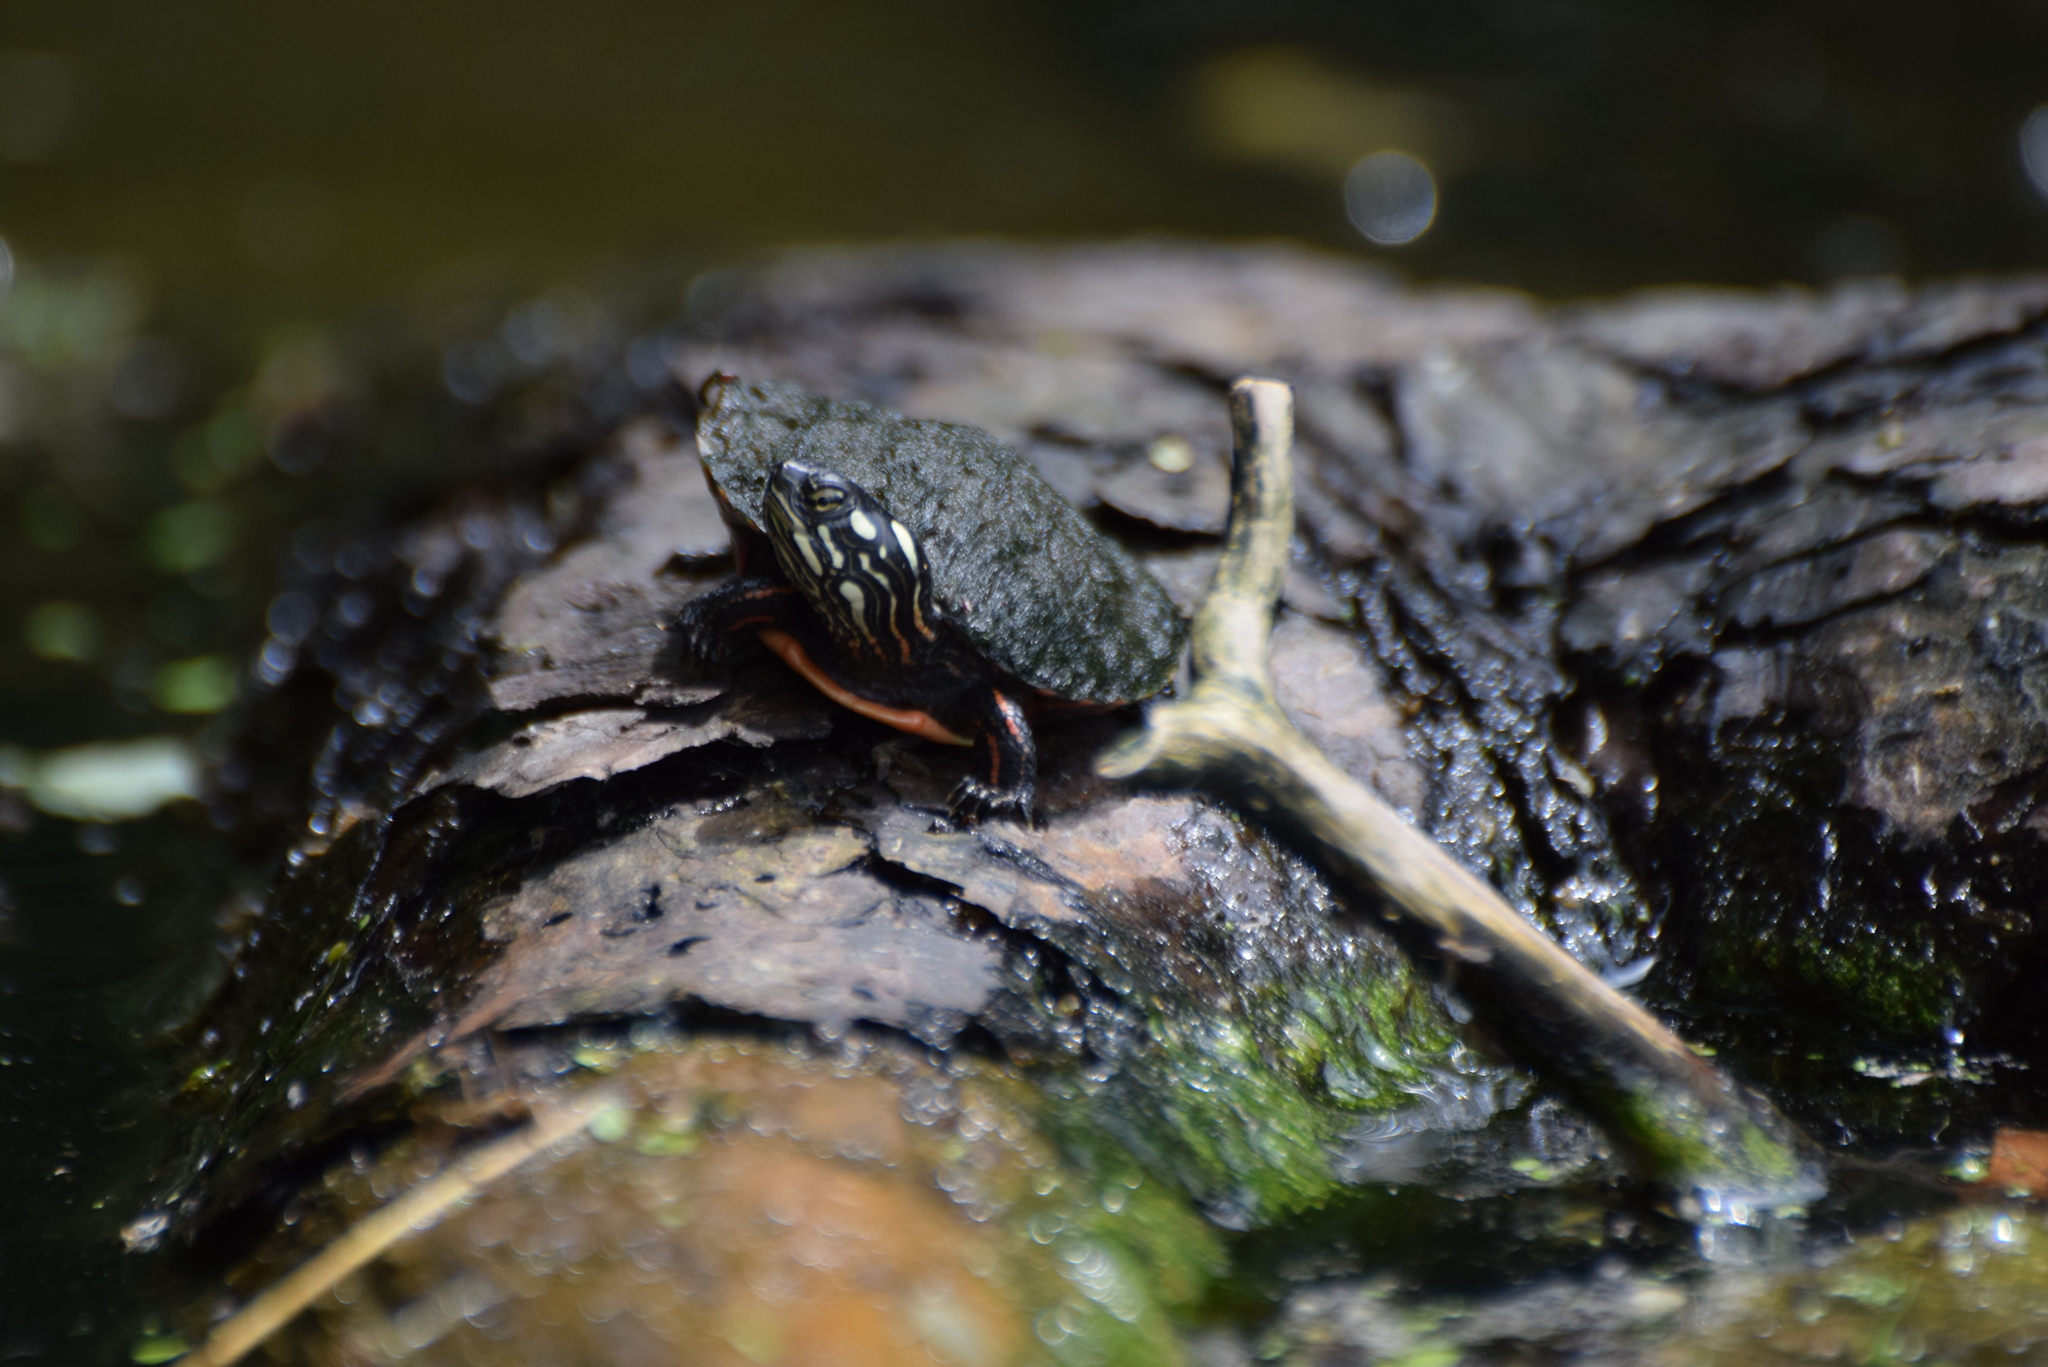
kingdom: Animalia
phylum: Chordata
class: Testudines
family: Emydidae
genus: Chrysemys
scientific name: Chrysemys picta
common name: Painted turtle
